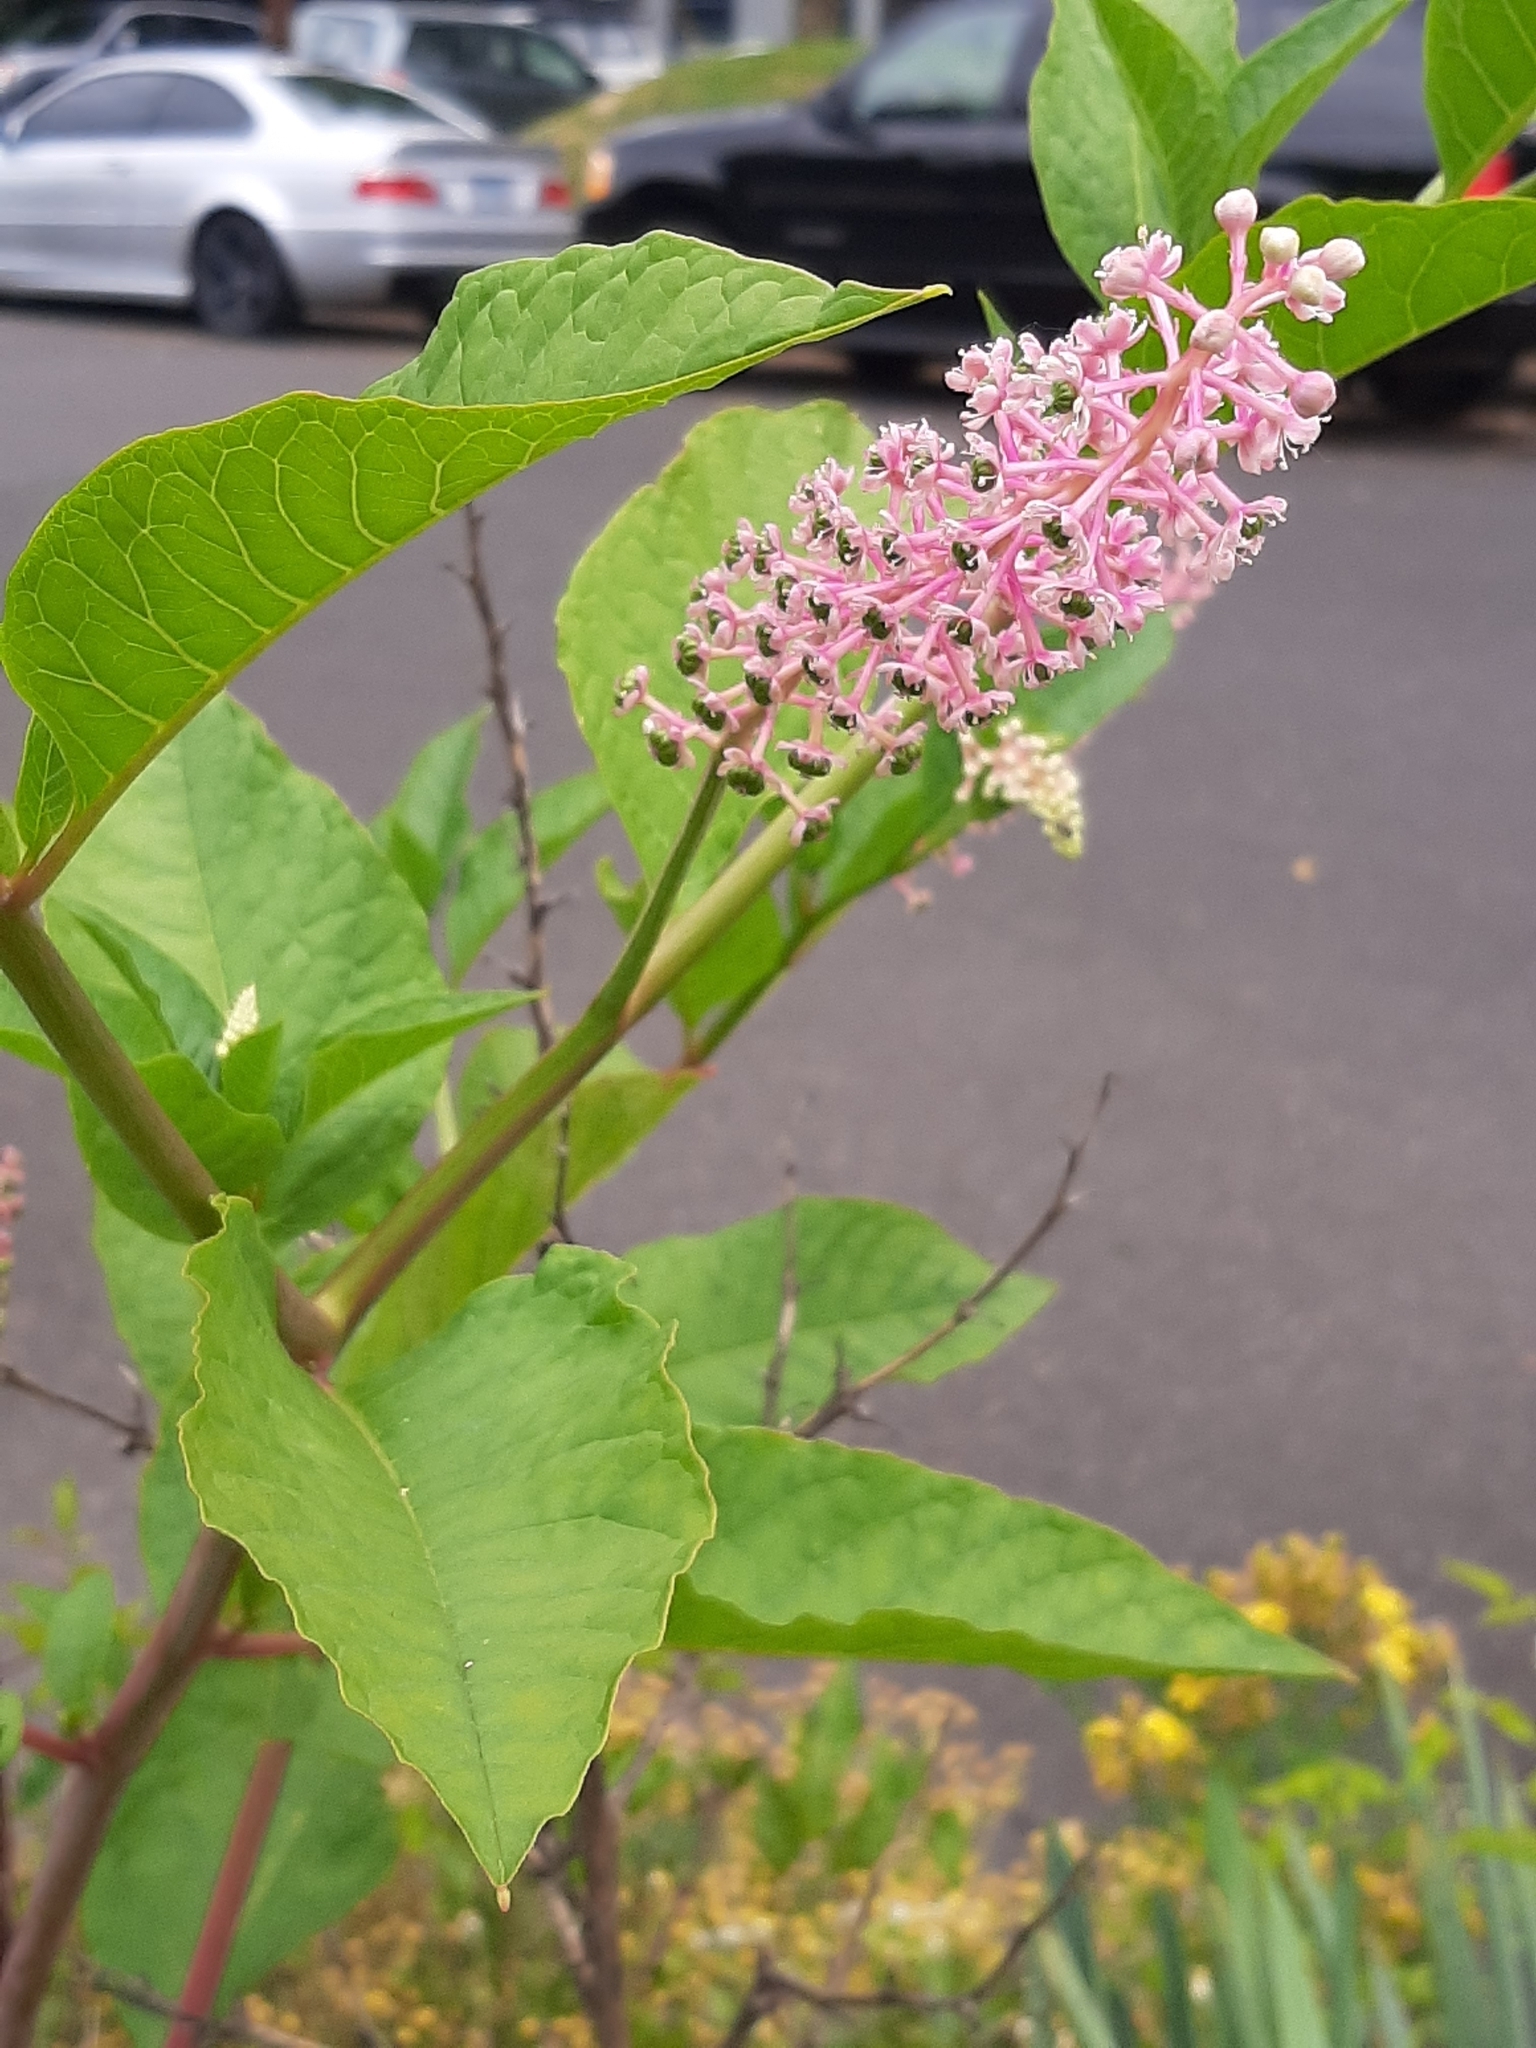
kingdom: Plantae
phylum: Tracheophyta
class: Magnoliopsida
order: Caryophyllales
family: Phytolaccaceae
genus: Phytolacca
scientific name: Phytolacca americana
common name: American pokeweed
